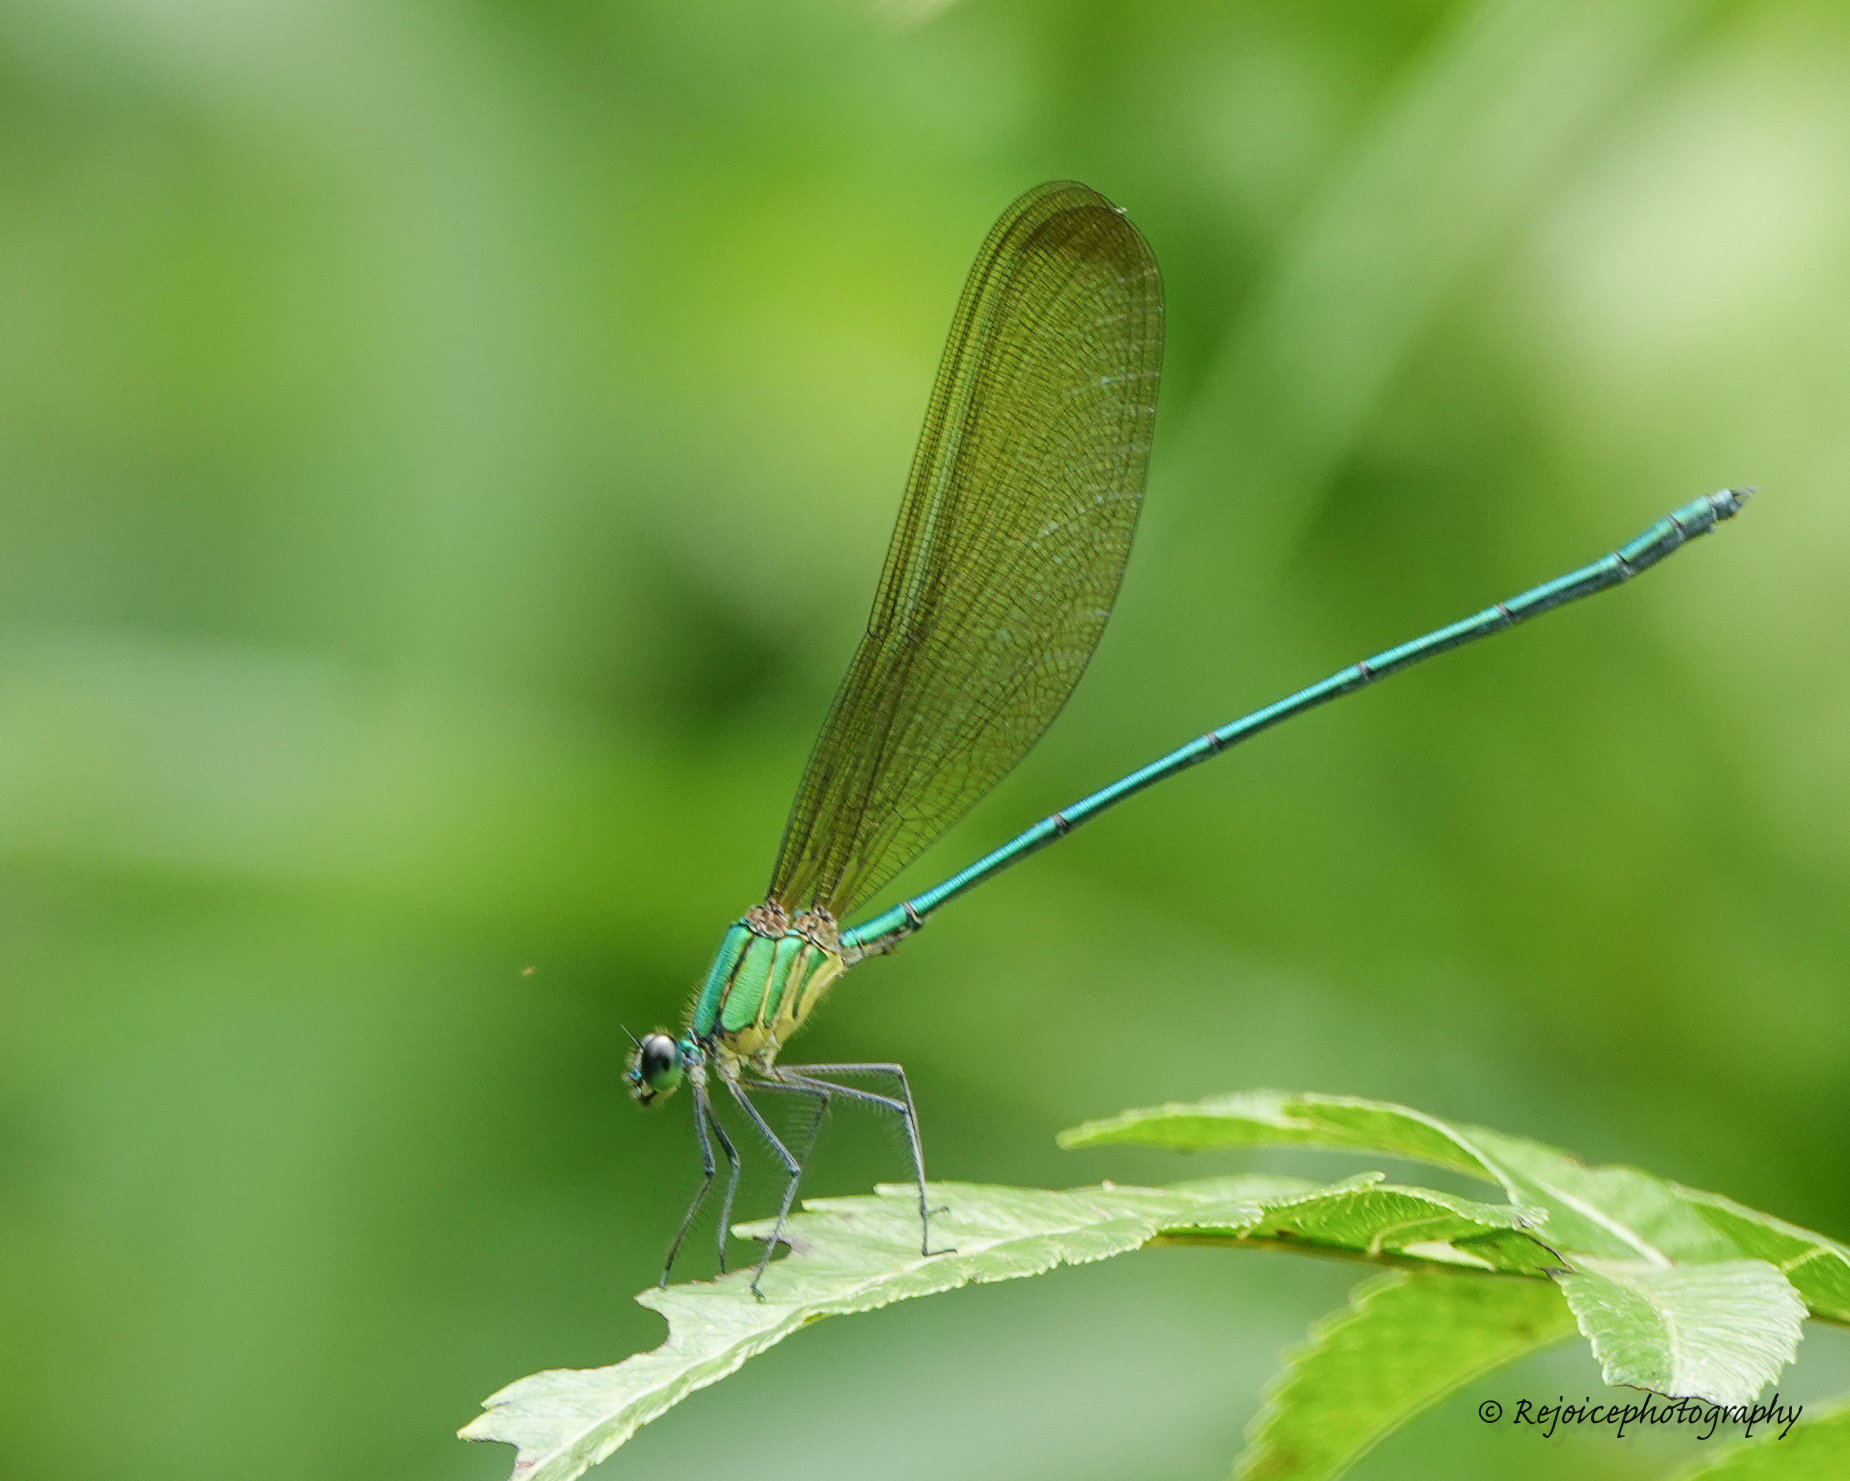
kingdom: Animalia
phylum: Arthropoda
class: Insecta
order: Odonata
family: Calopterygidae
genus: Vestalis
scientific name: Vestalis gracilis
